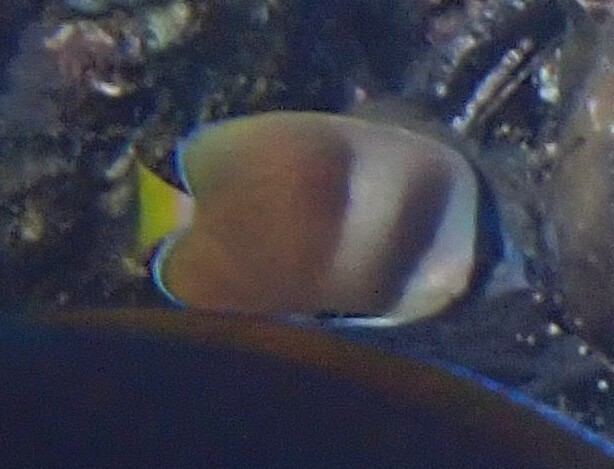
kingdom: Animalia
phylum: Chordata
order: Perciformes
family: Chaetodontidae
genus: Chaetodon
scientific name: Chaetodon kleinii
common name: Klein's butterflyfish
